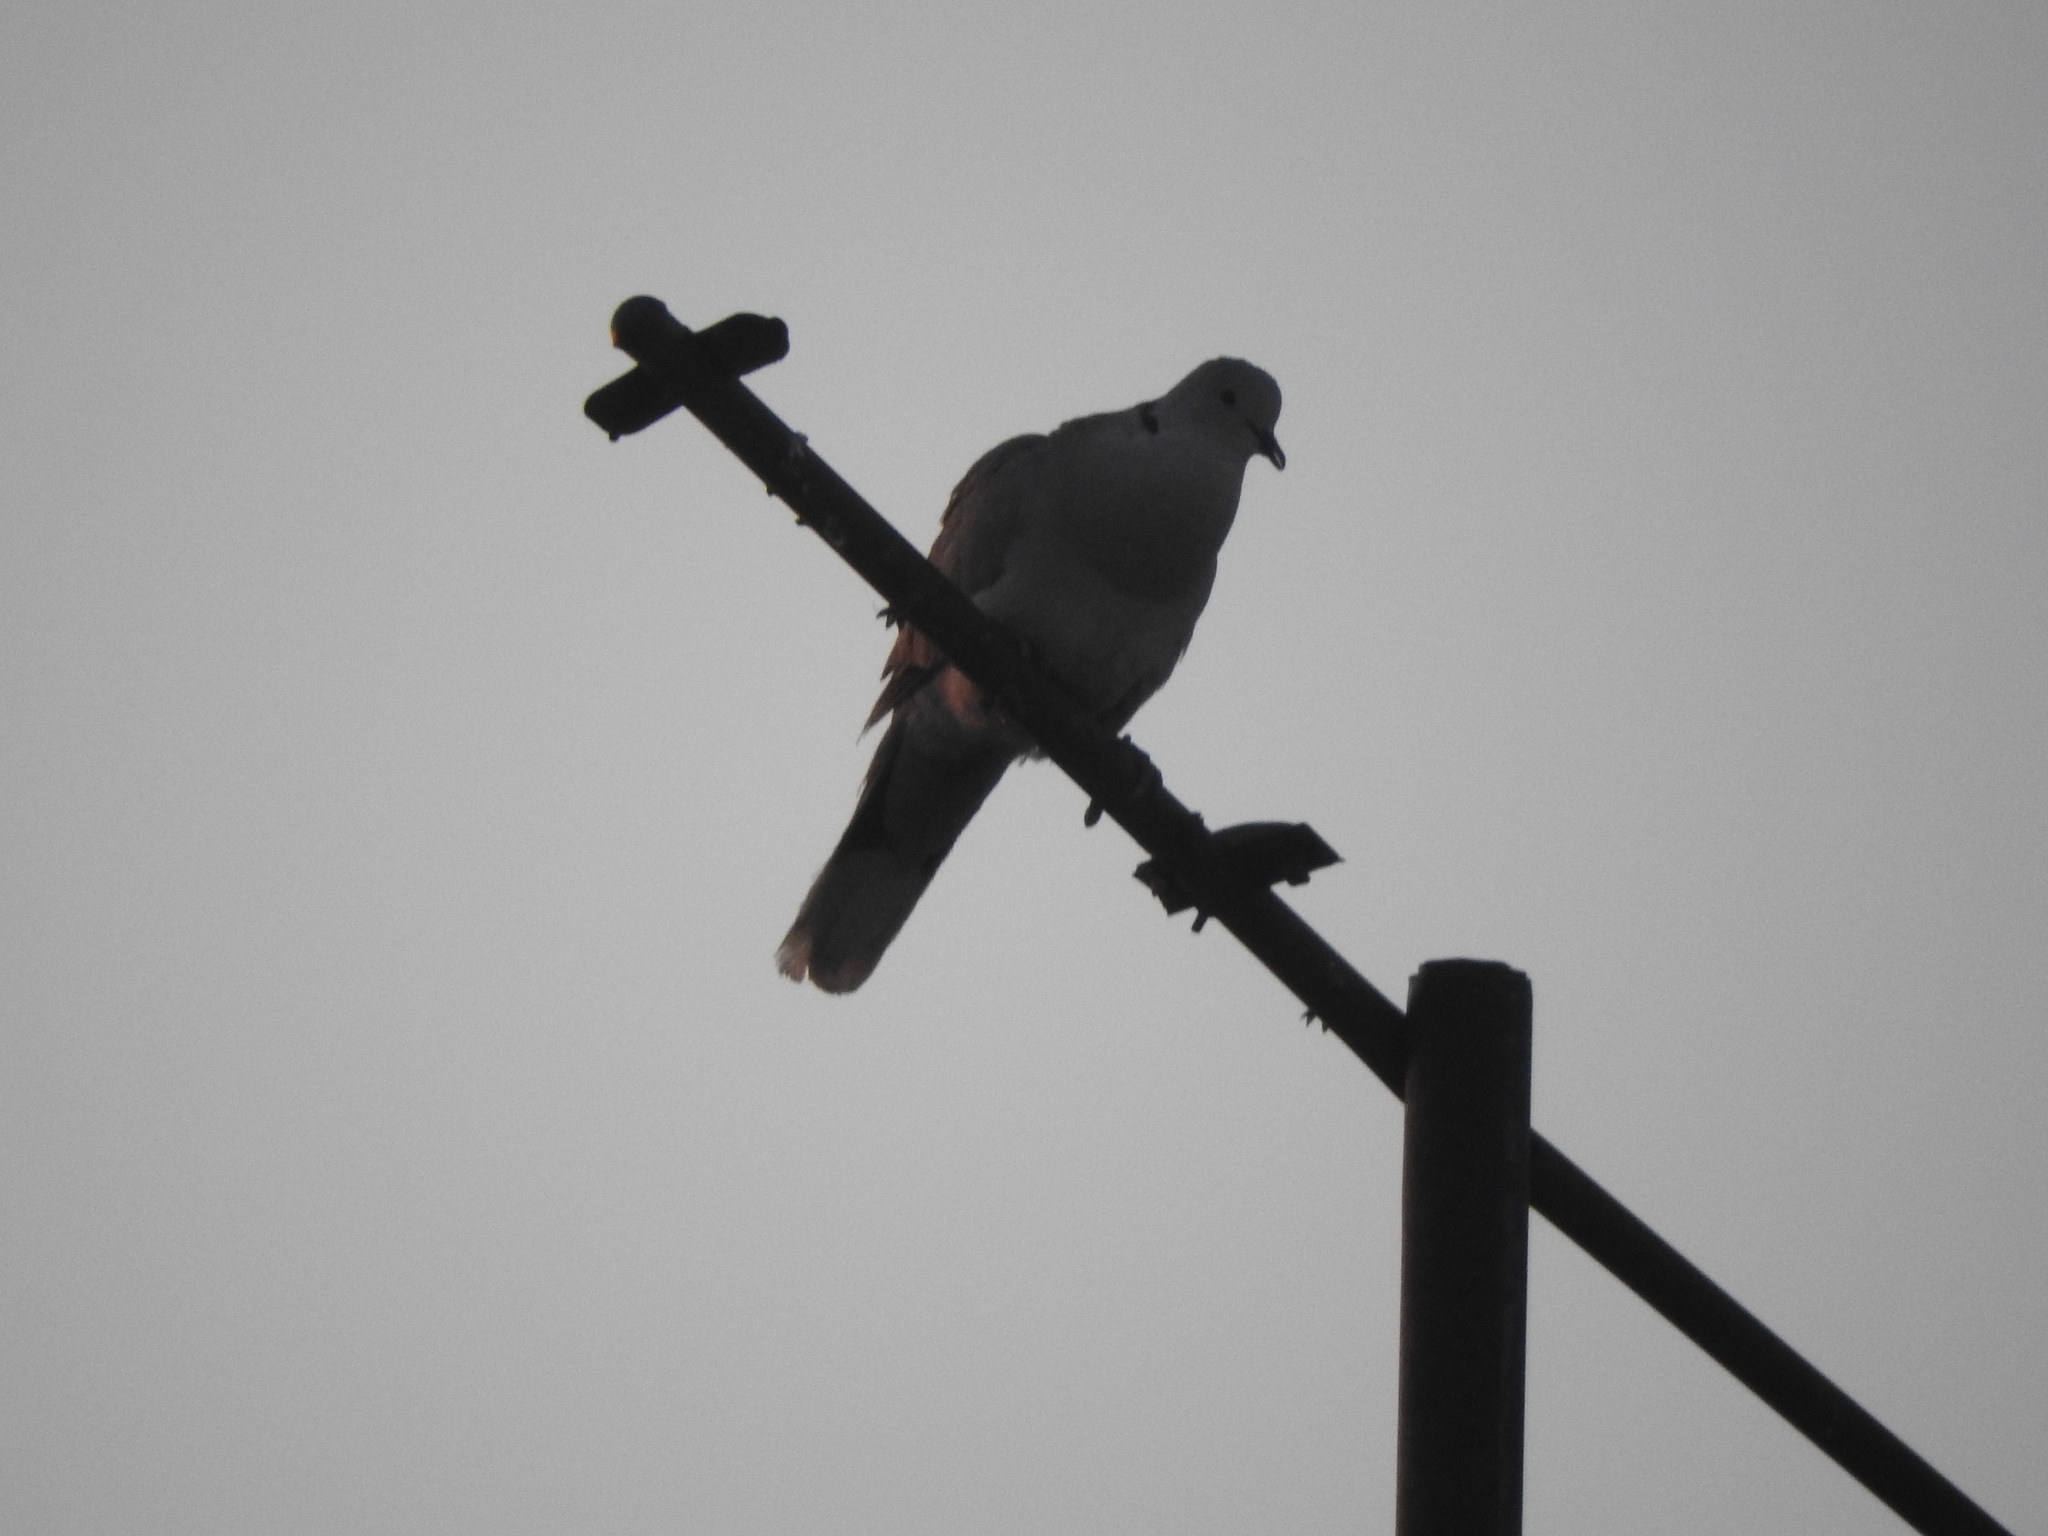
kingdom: Animalia
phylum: Chordata
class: Aves
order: Columbiformes
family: Columbidae
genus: Streptopelia
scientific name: Streptopelia decaocto
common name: Eurasian collared dove
